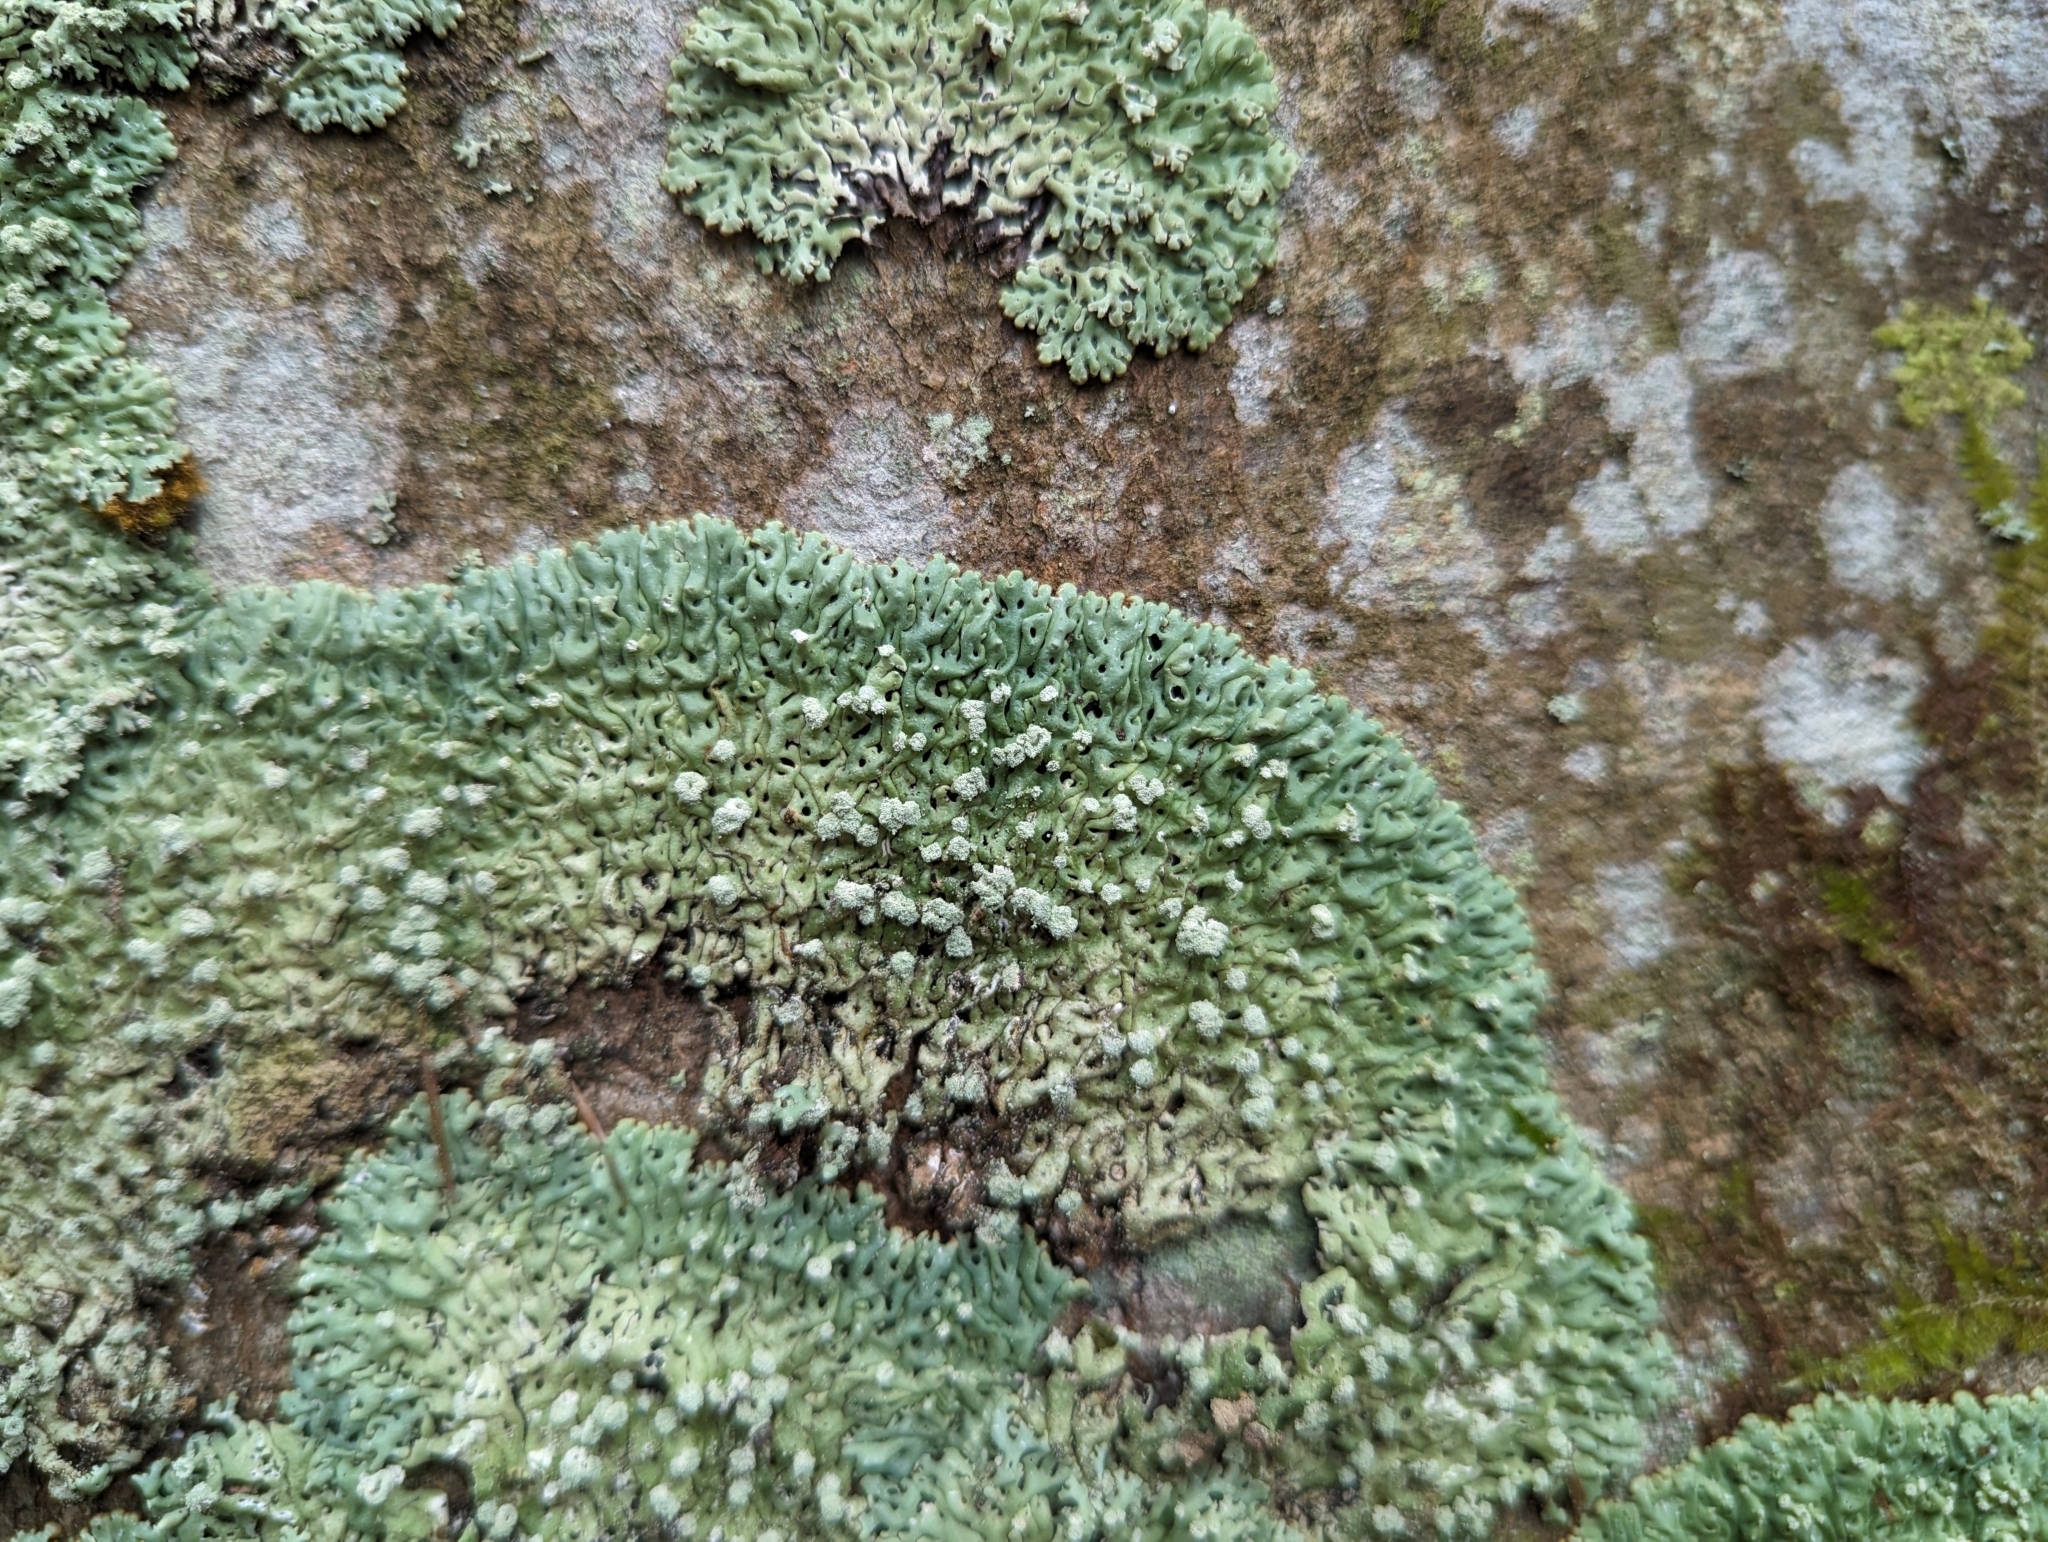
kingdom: Fungi
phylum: Ascomycota
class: Lecanoromycetes
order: Lecanorales
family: Parmeliaceae
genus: Menegazzia
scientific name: Menegazzia terebrata
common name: Magic treeflute lichen
